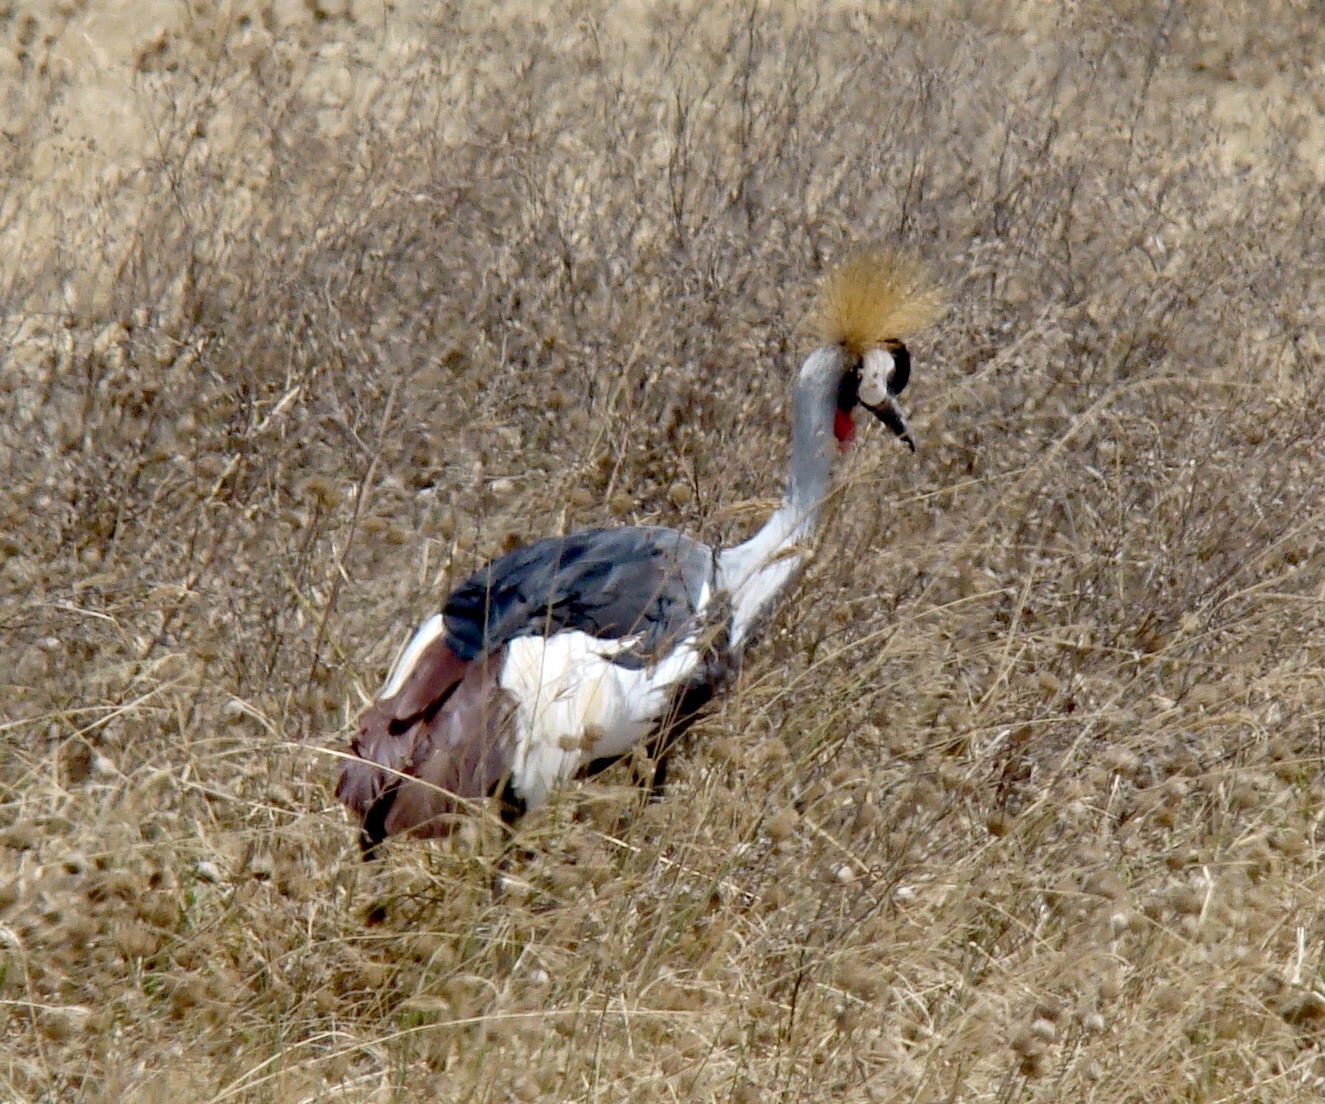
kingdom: Animalia
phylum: Chordata
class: Aves
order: Gruiformes
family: Gruidae
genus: Balearica
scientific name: Balearica regulorum
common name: Grey crowned crane
